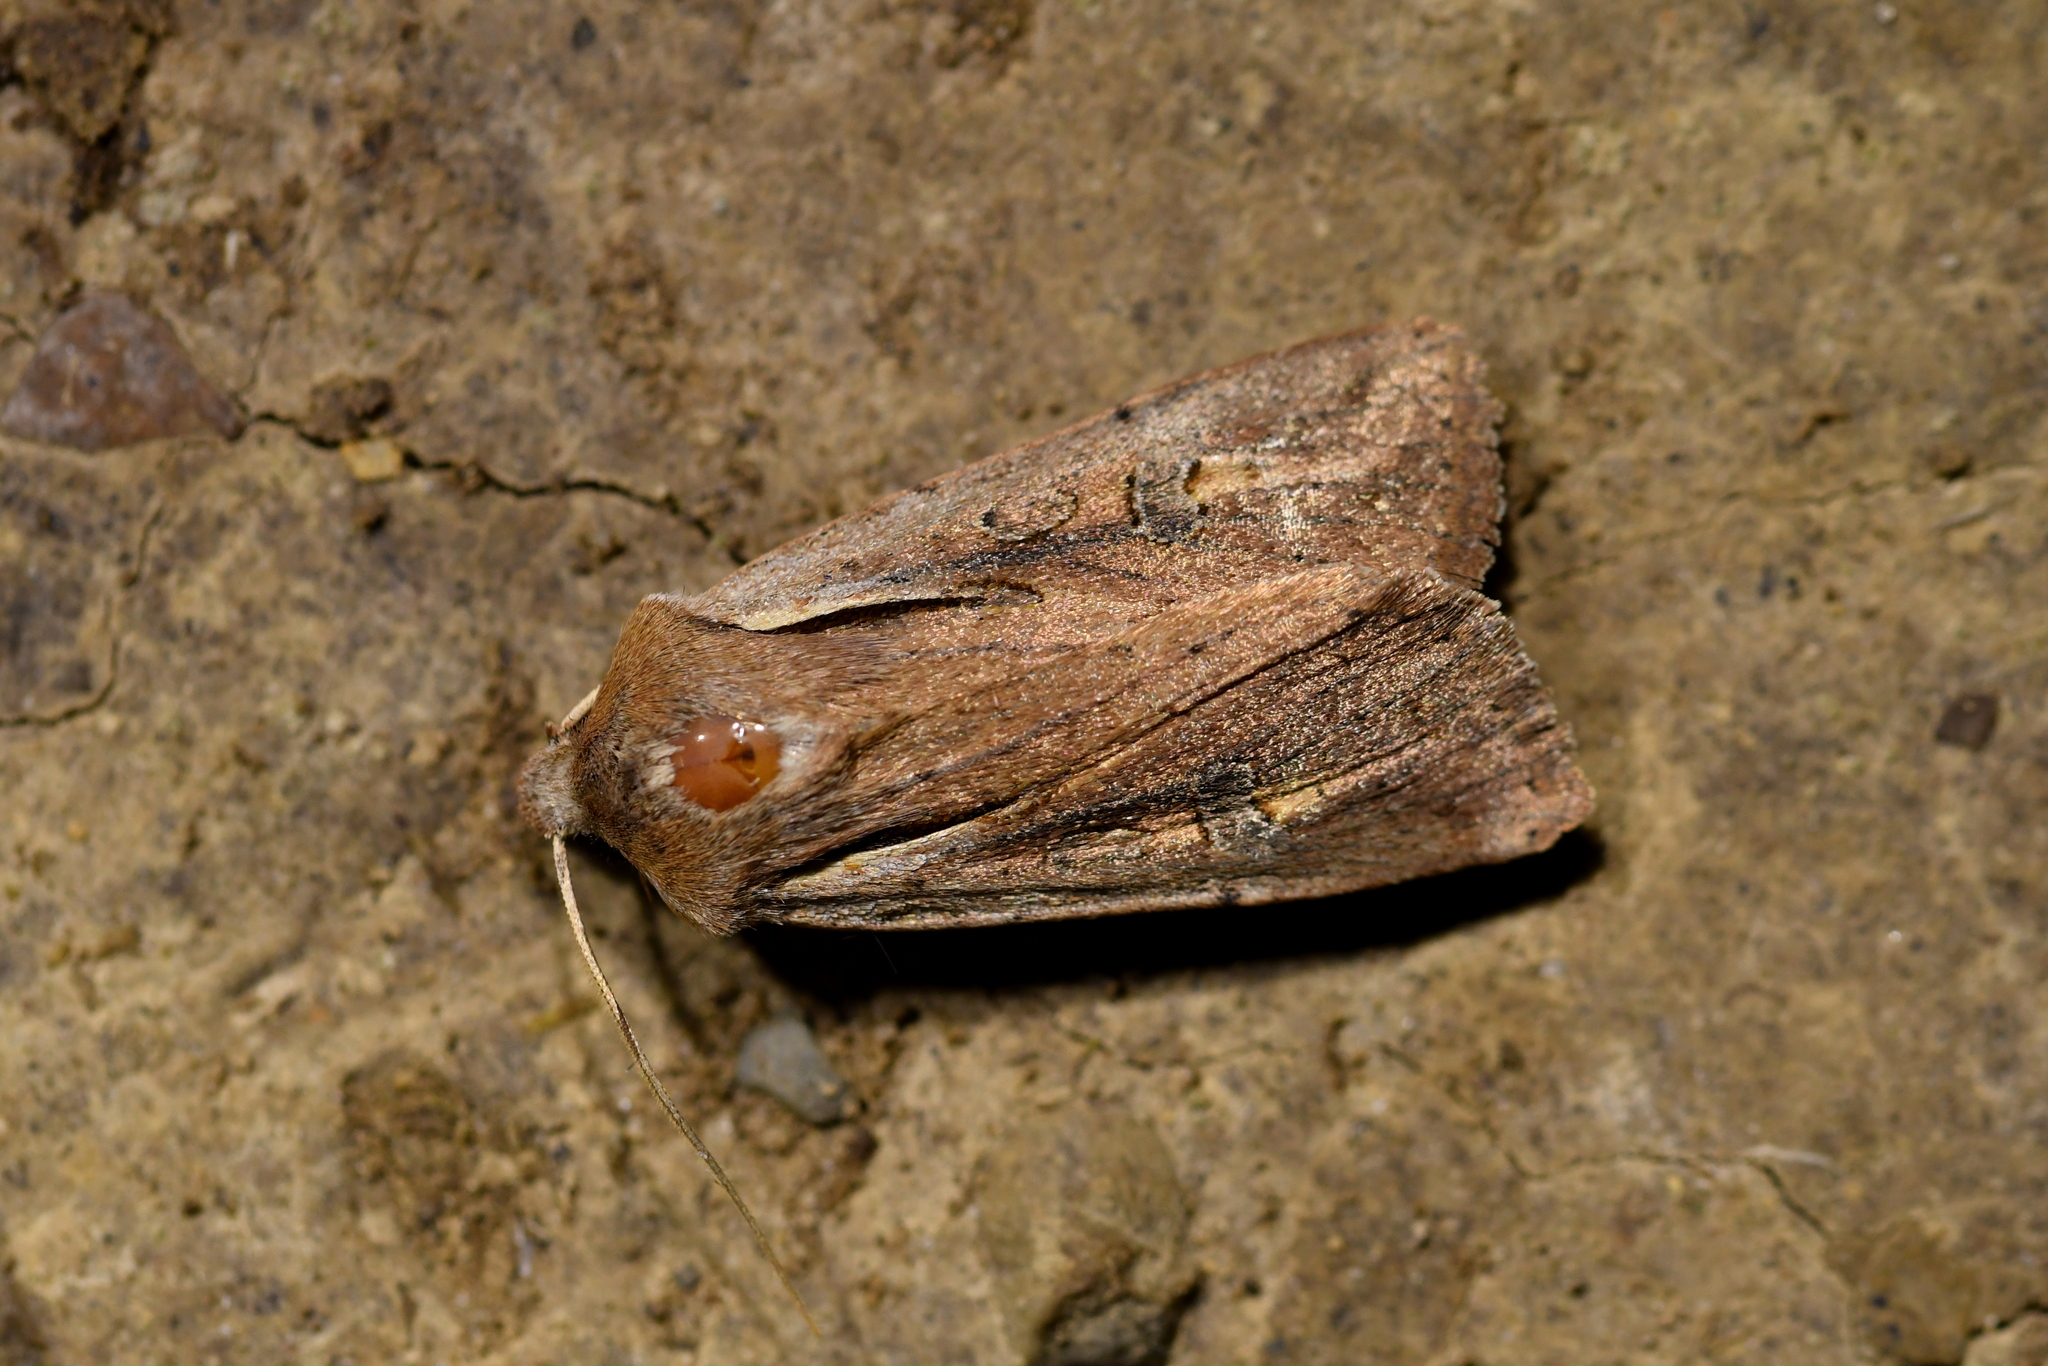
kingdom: Animalia
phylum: Arthropoda
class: Insecta
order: Lepidoptera
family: Noctuidae
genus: Ichneutica
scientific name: Ichneutica atristriga
